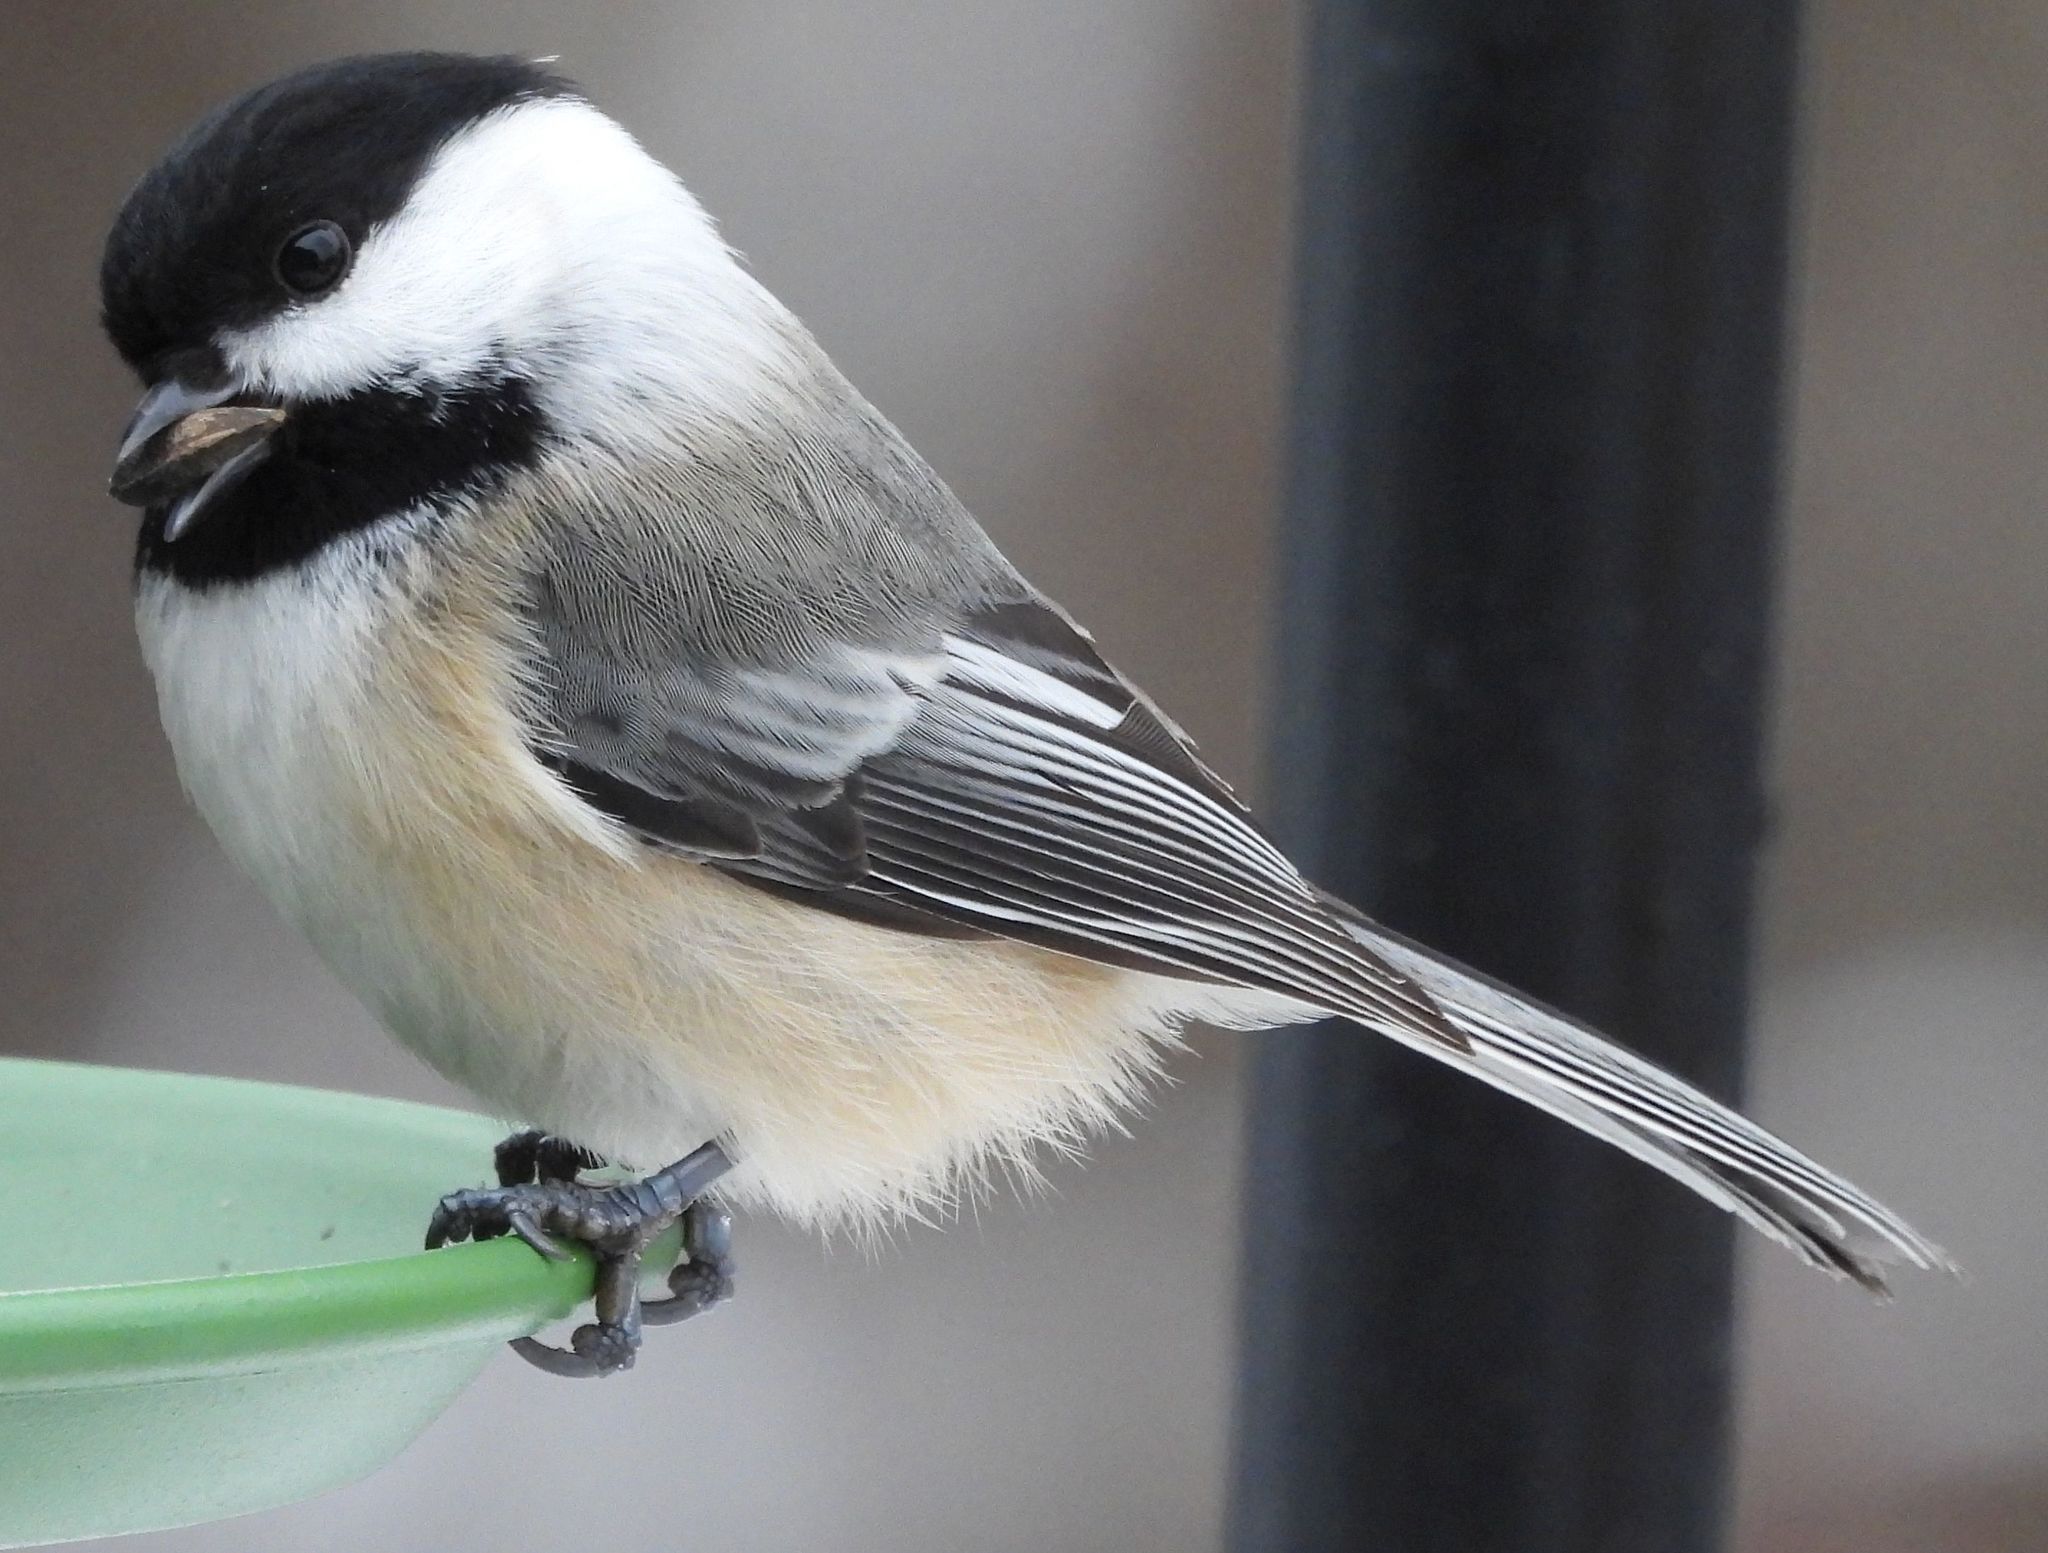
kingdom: Animalia
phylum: Chordata
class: Aves
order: Passeriformes
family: Paridae
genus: Poecile
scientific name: Poecile atricapillus
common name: Black-capped chickadee
